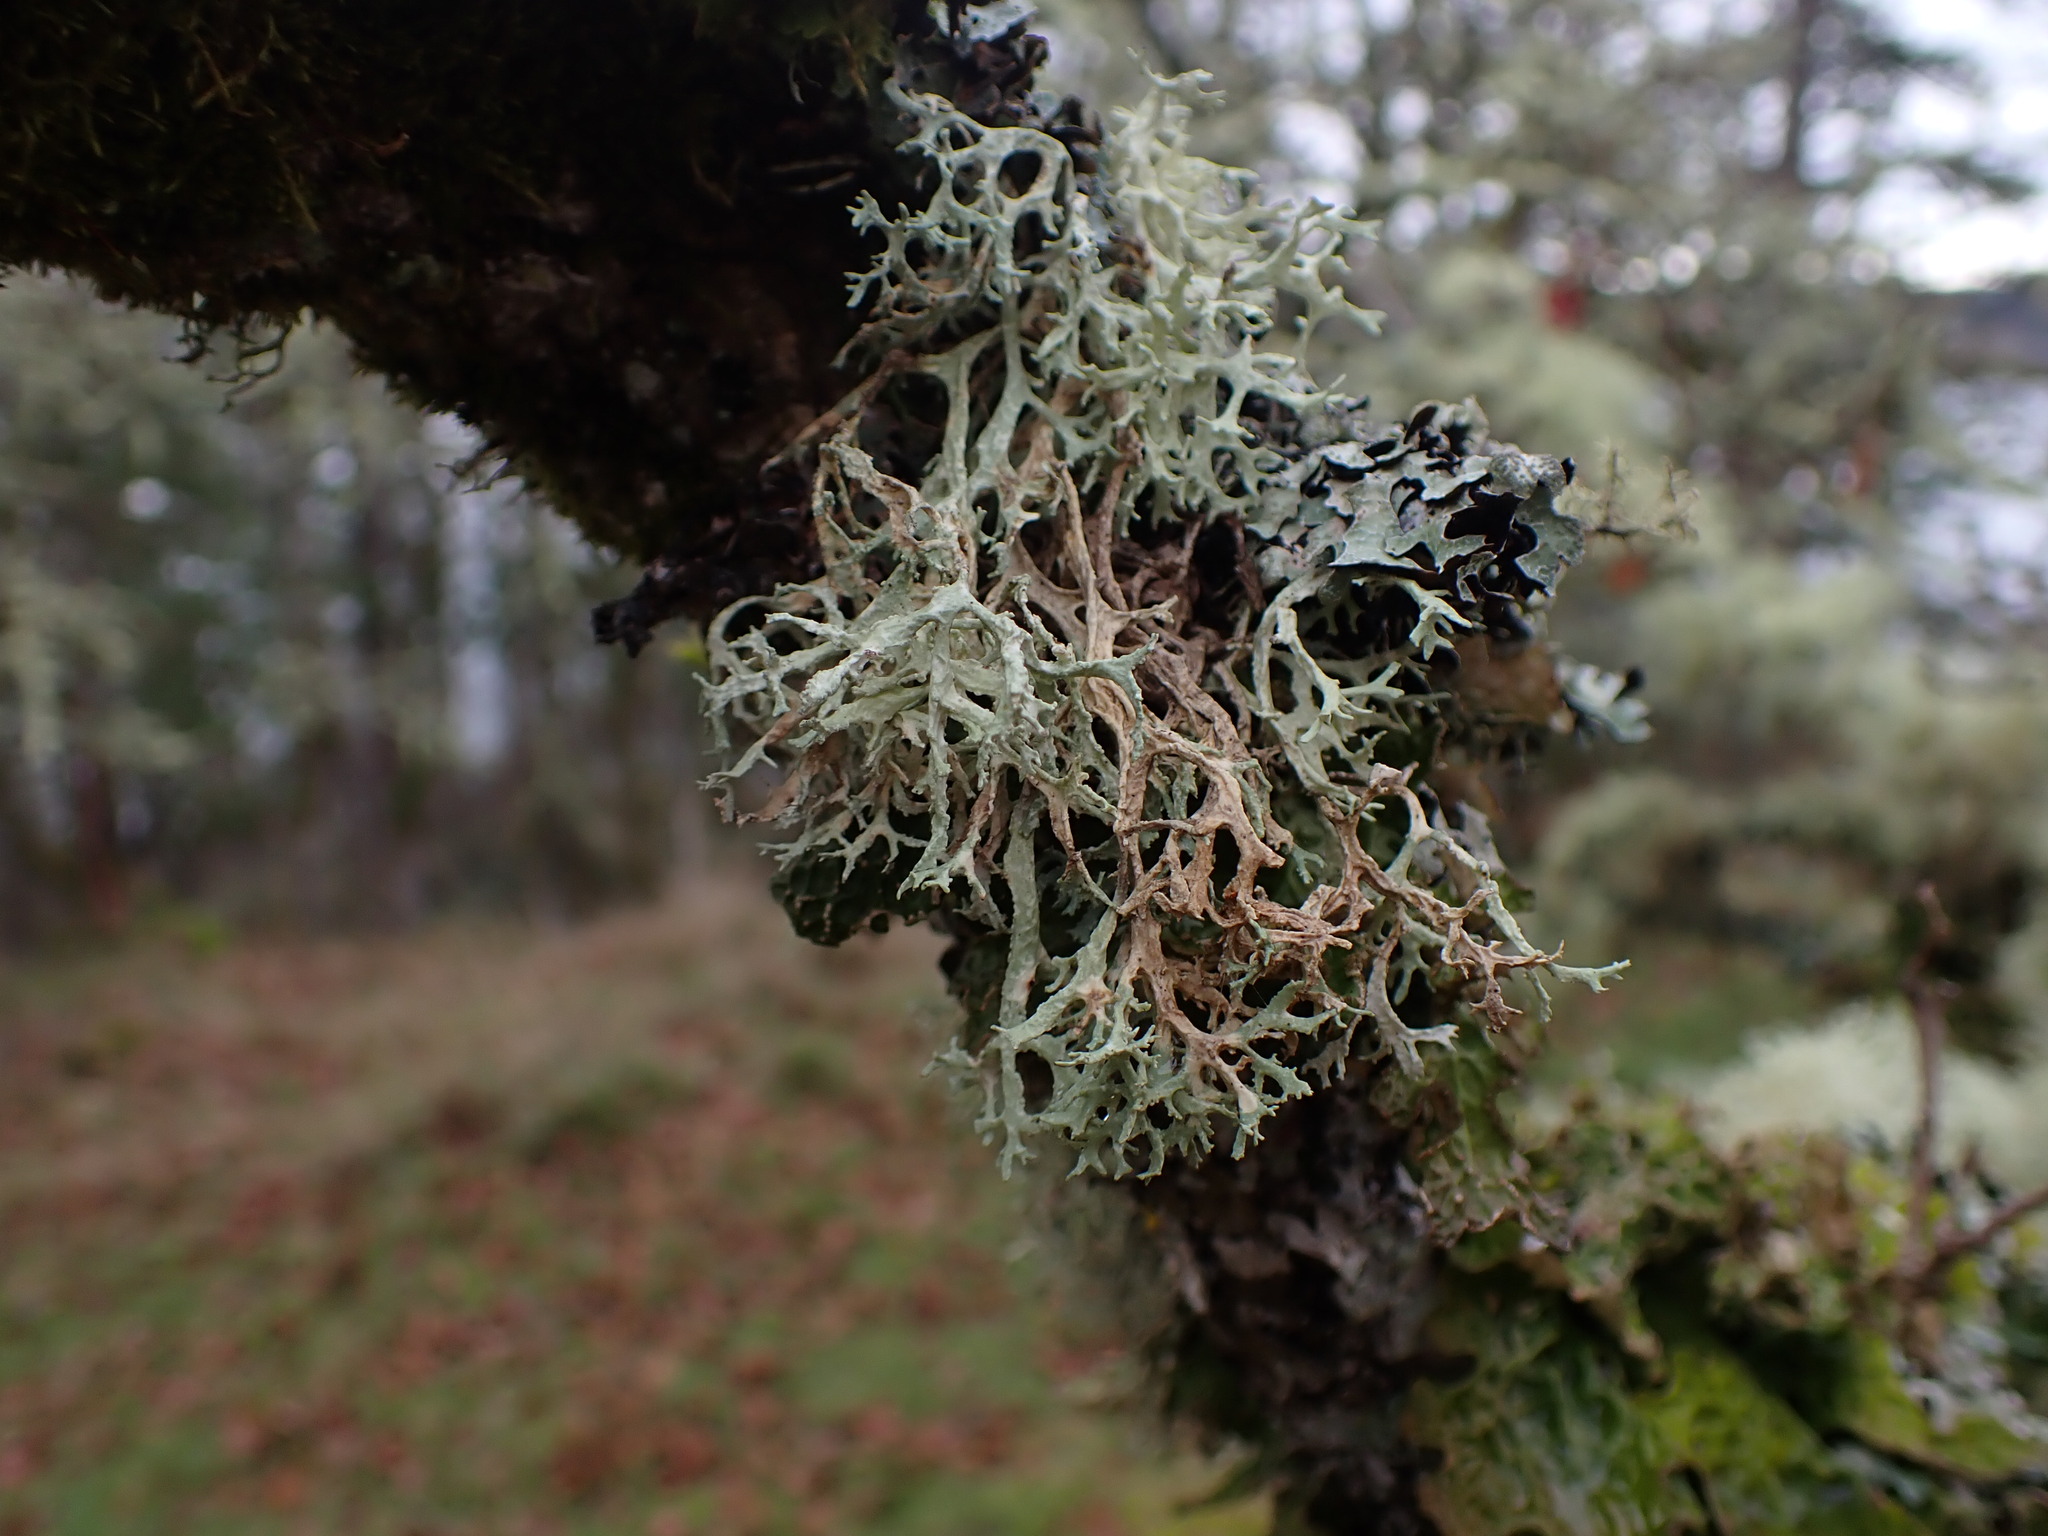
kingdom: Fungi
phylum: Ascomycota
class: Lecanoromycetes
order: Lecanorales
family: Ramalinaceae
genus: Ramalina
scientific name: Ramalina farinacea
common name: Farinose cartilage lichen
